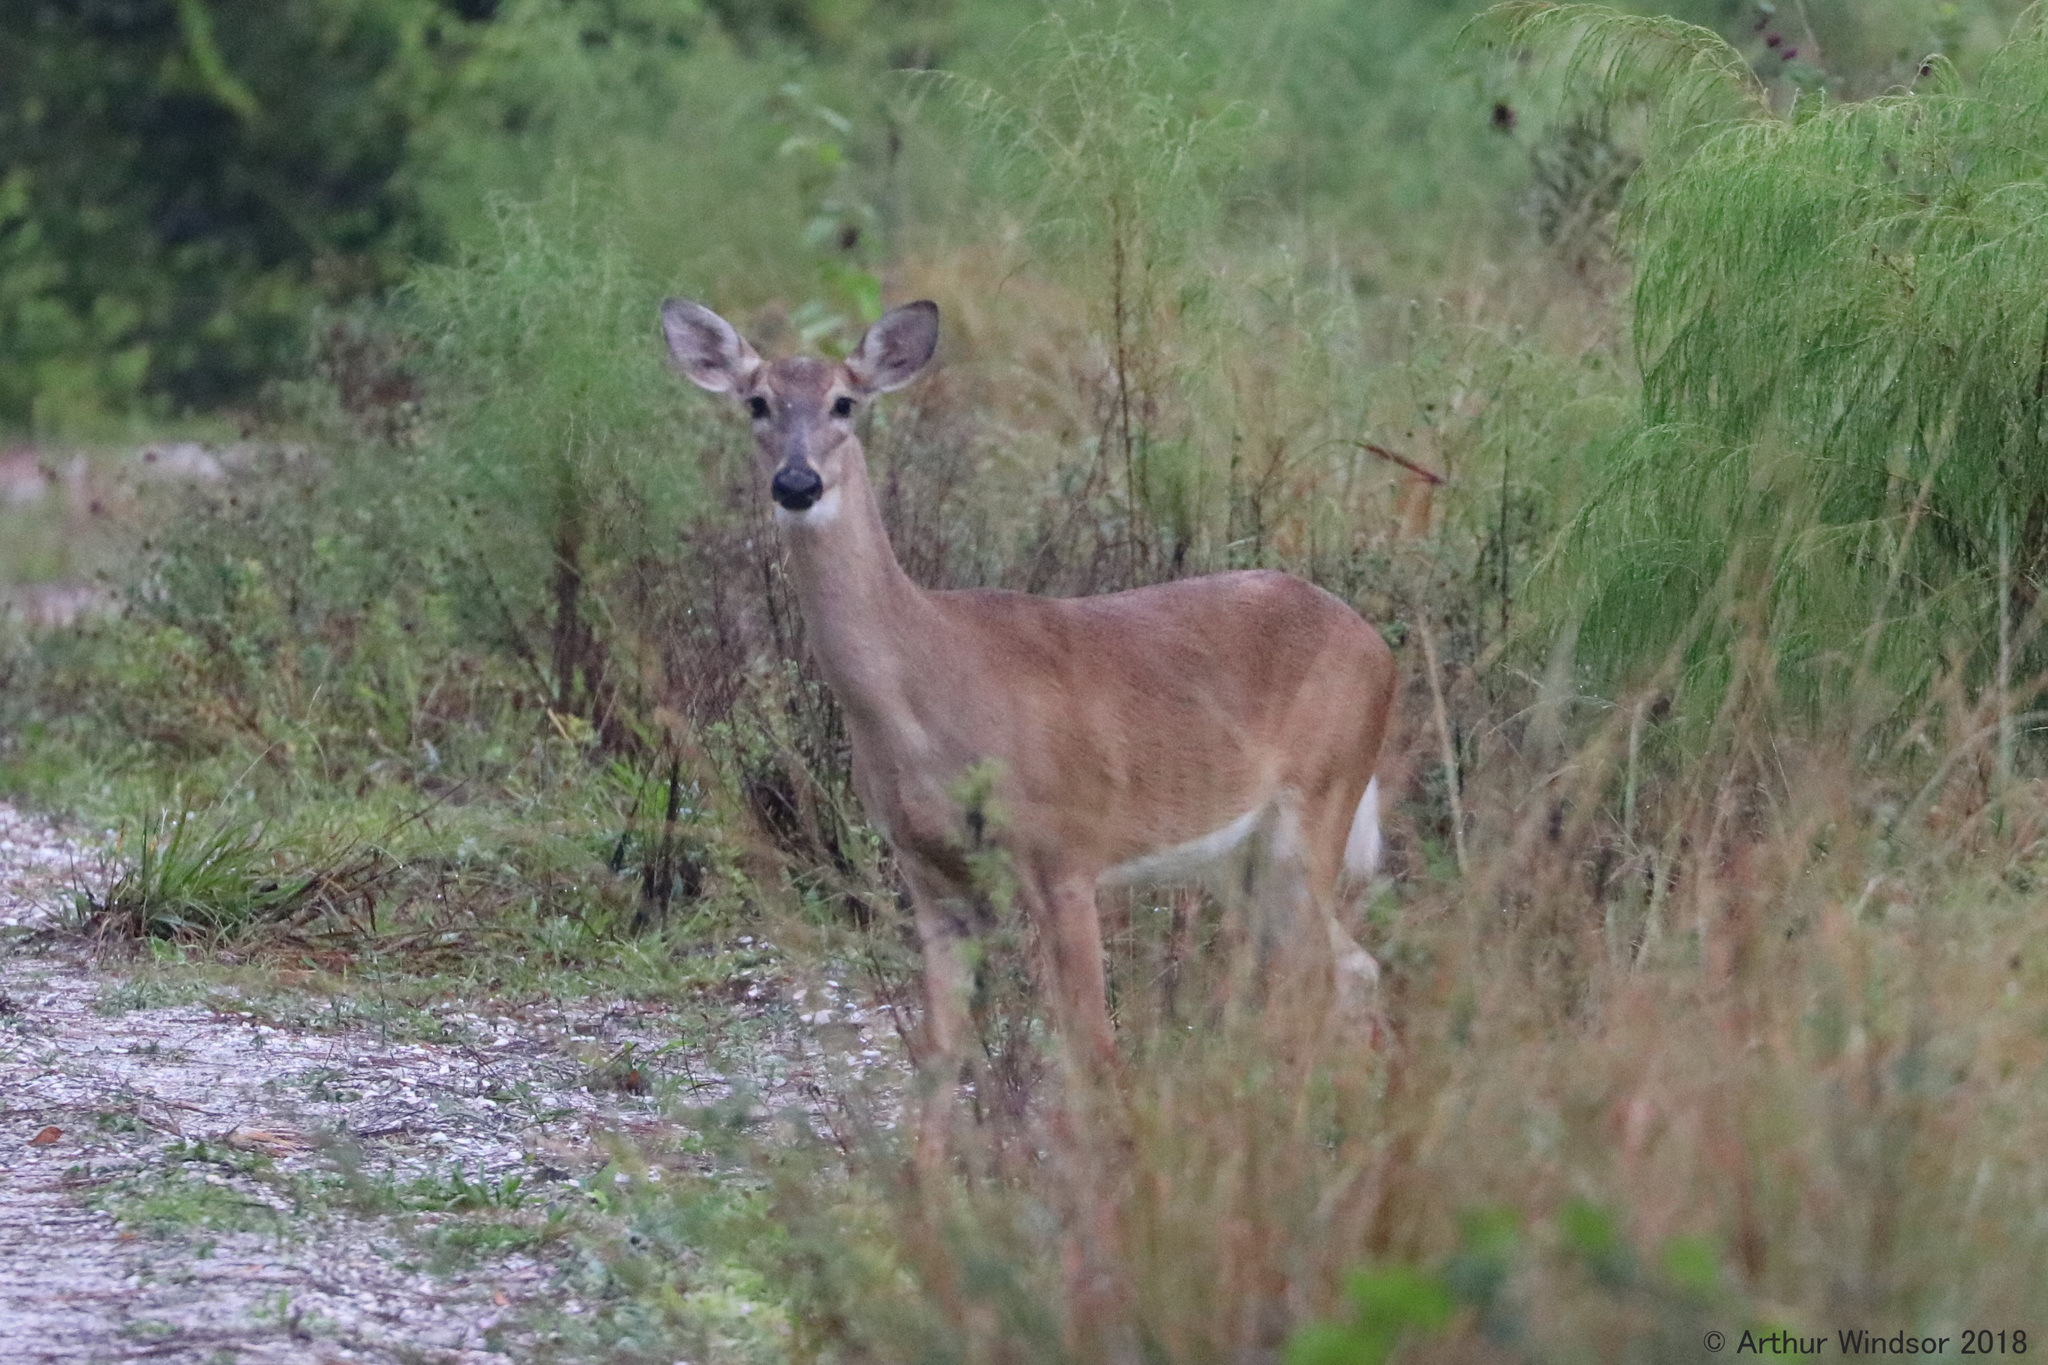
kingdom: Animalia
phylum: Chordata
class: Mammalia
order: Artiodactyla
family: Cervidae
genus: Odocoileus
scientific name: Odocoileus virginianus
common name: White-tailed deer
